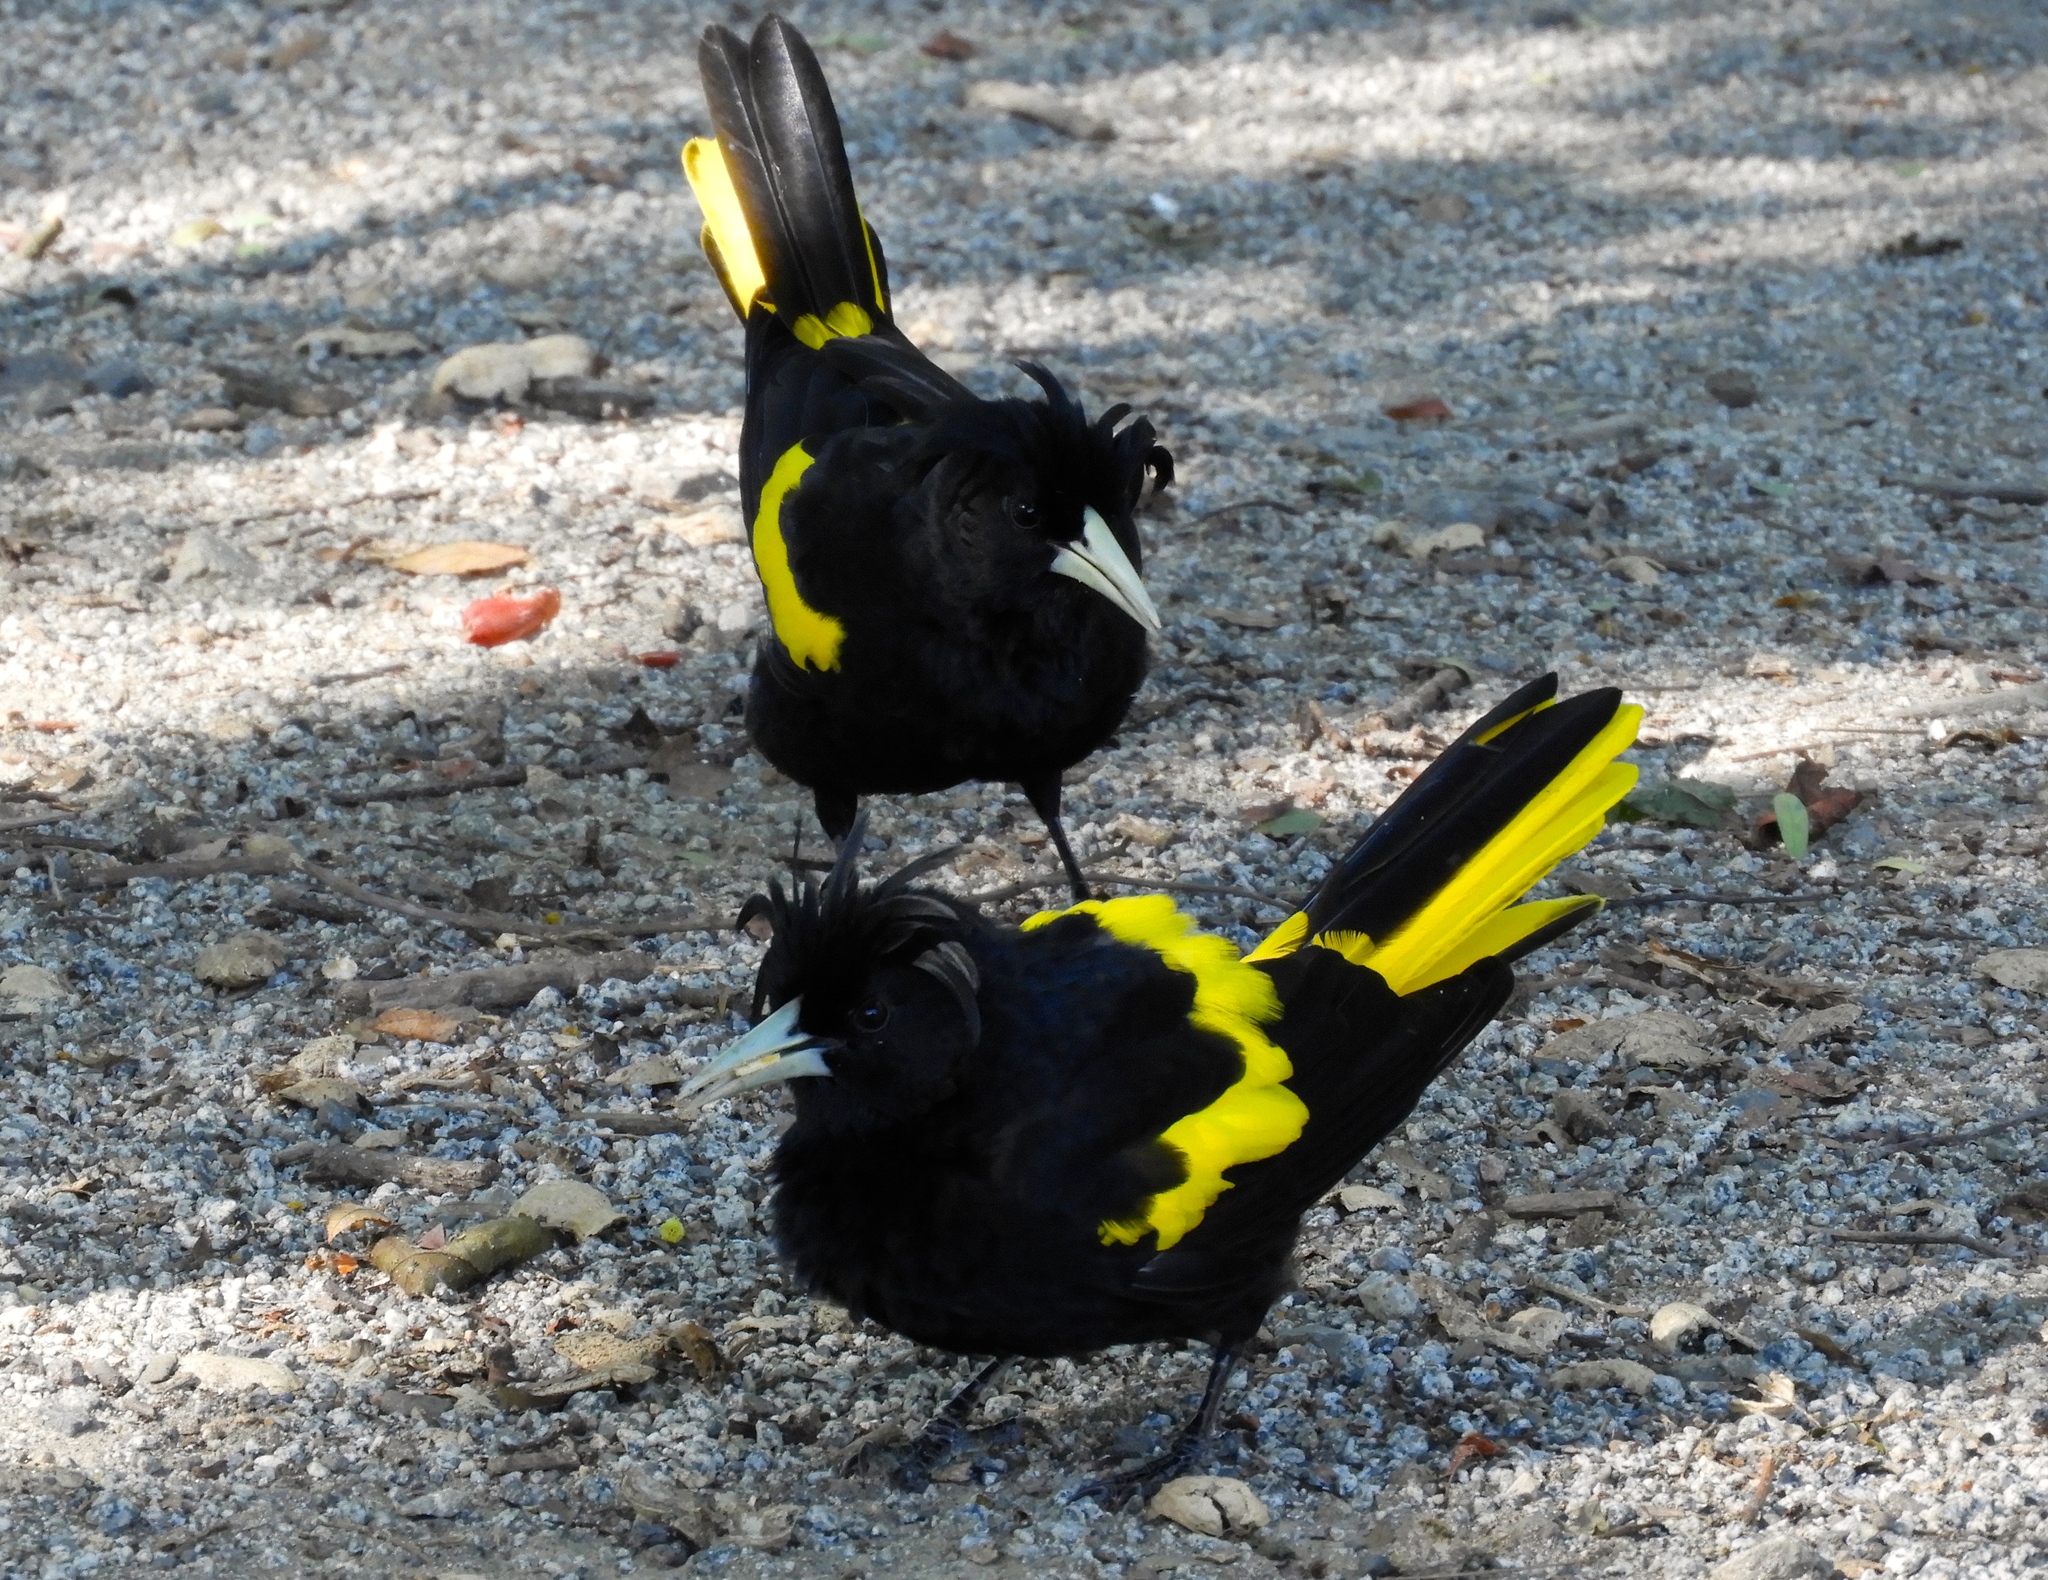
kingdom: Animalia
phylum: Chordata
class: Aves
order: Passeriformes
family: Icteridae
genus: Cacicus
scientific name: Cacicus melanicterus
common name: Yellow-winged cacique
